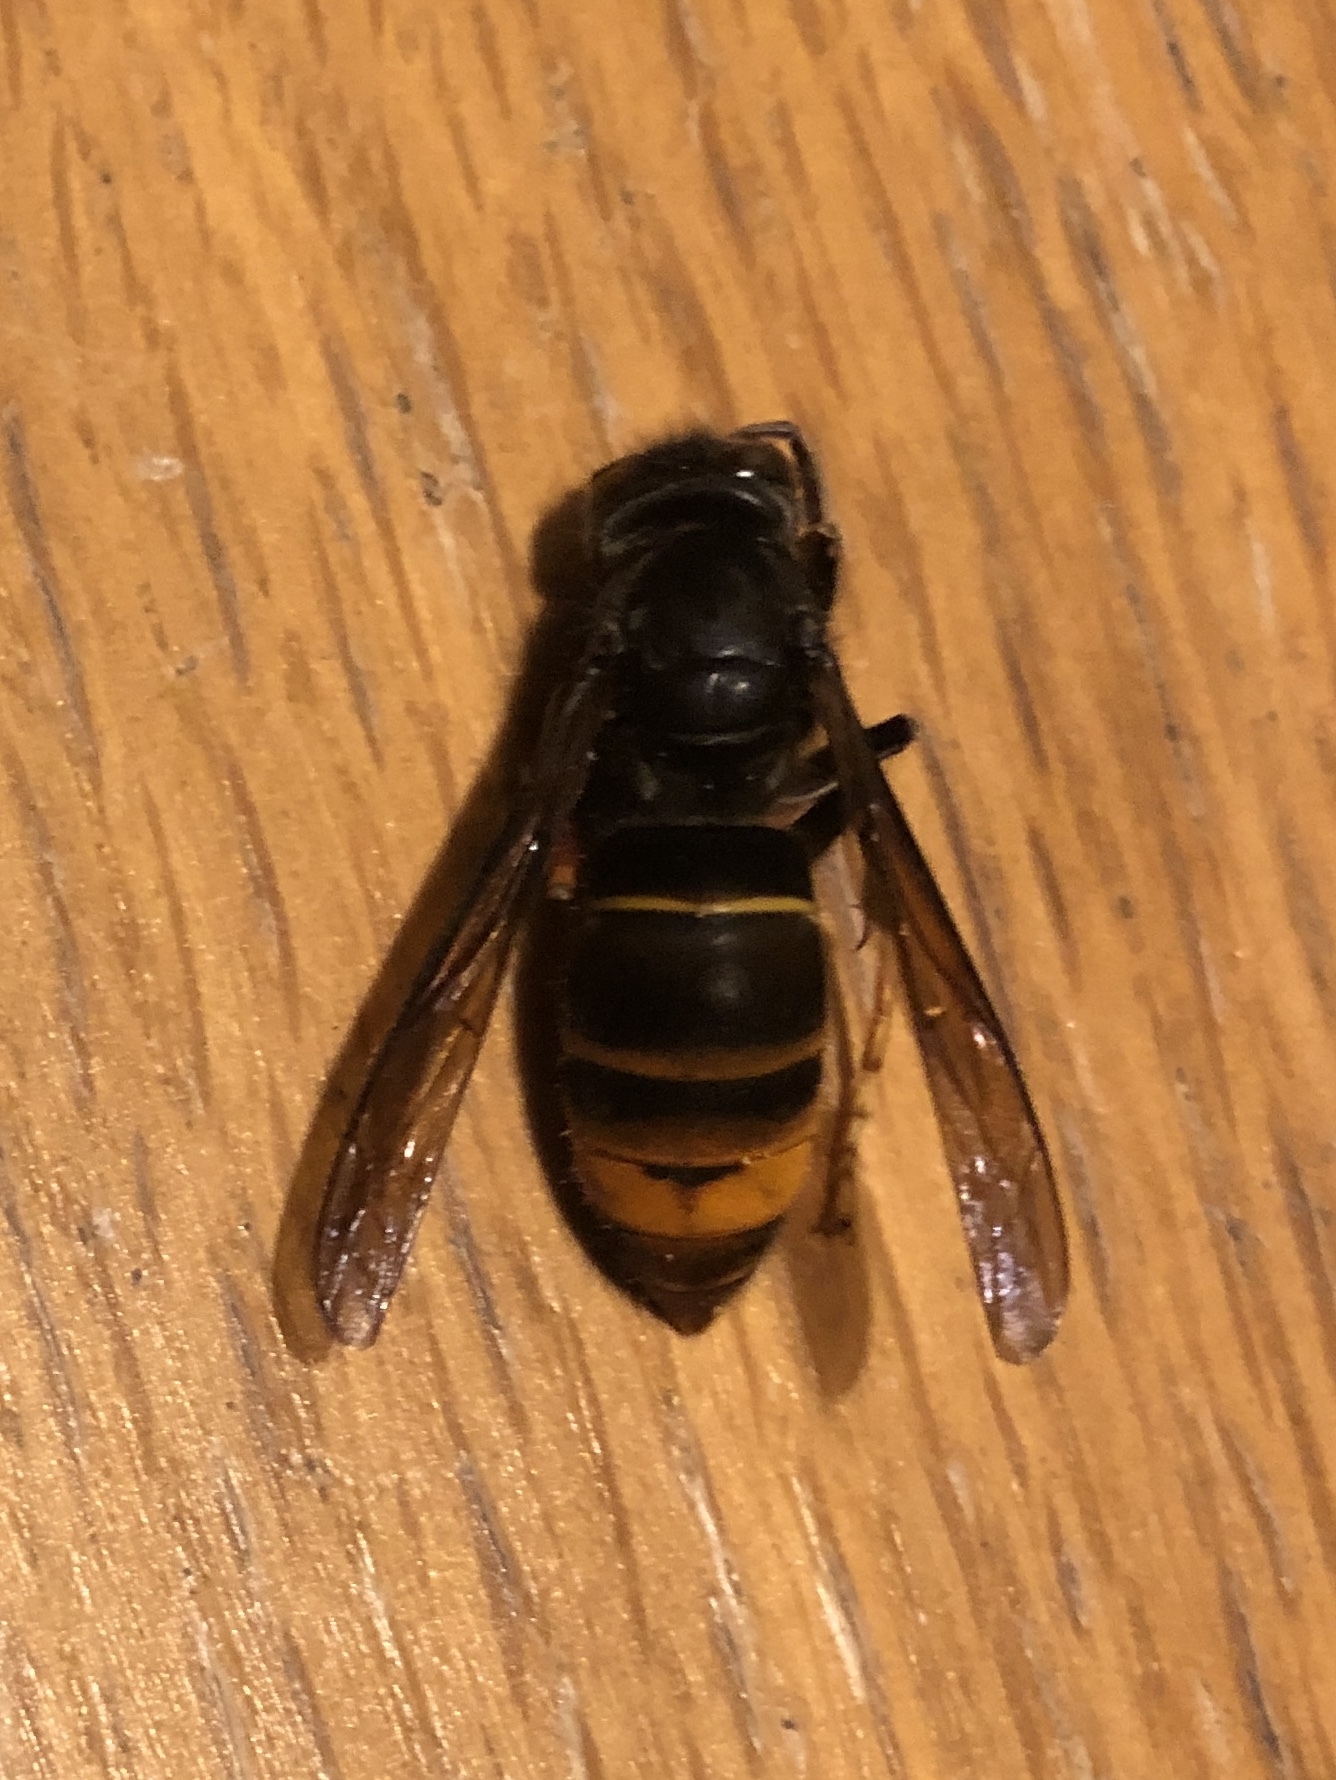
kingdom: Animalia
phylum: Arthropoda
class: Insecta
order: Hymenoptera
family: Vespidae
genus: Vespa
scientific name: Vespa velutina
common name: Asian hornet
